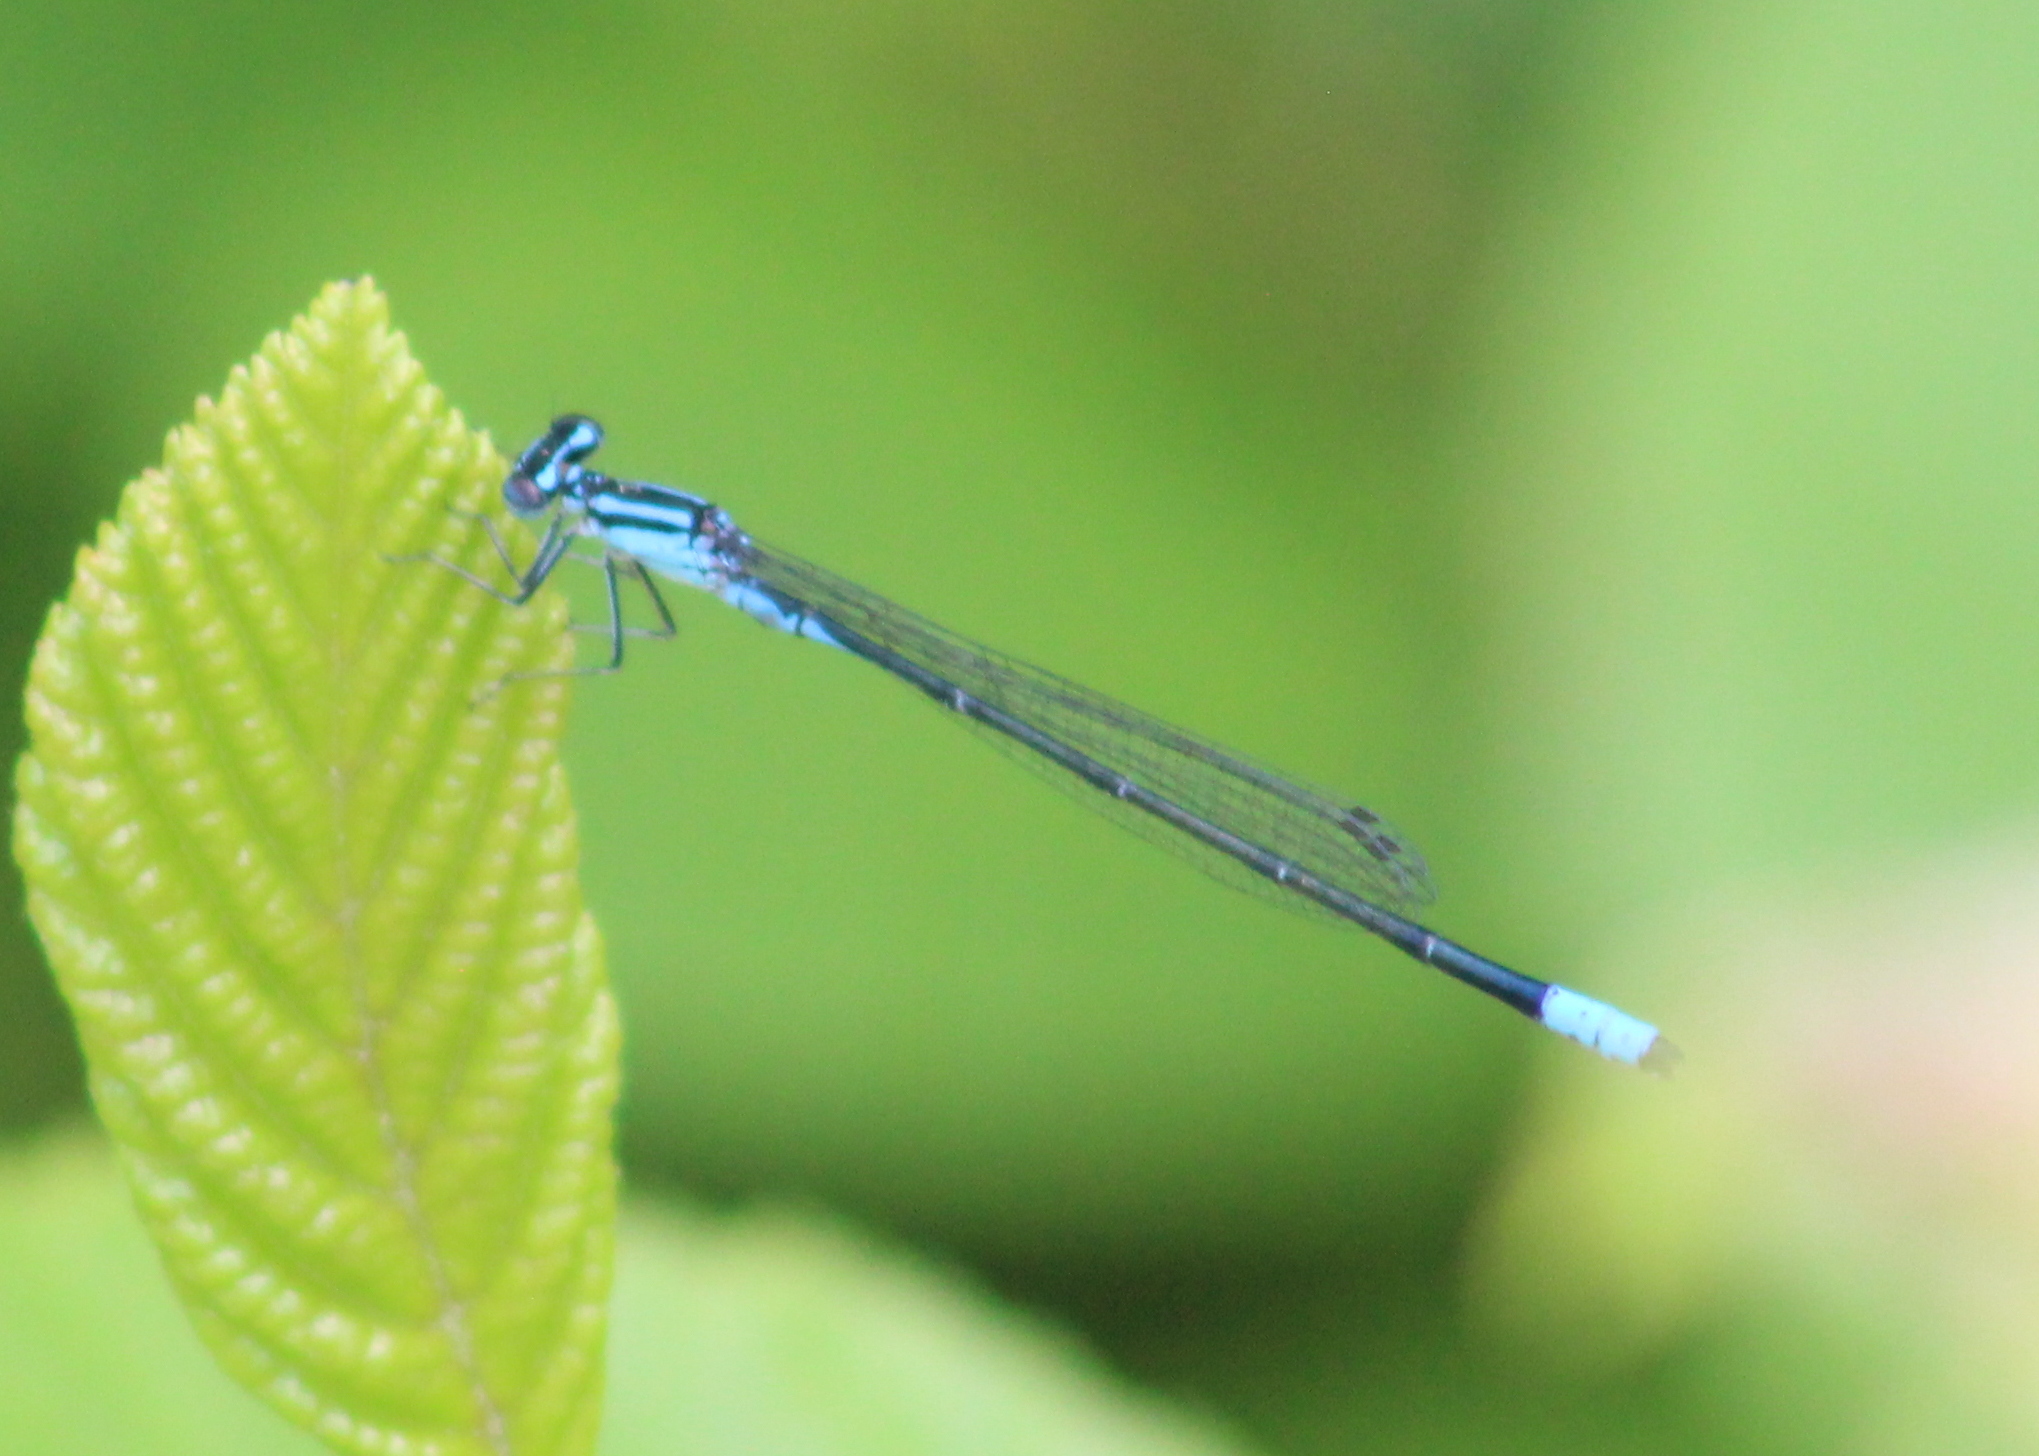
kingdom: Animalia
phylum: Arthropoda
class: Insecta
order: Odonata
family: Coenagrionidae
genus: Enallagma
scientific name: Enallagma divagans
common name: Turquoise bluet
